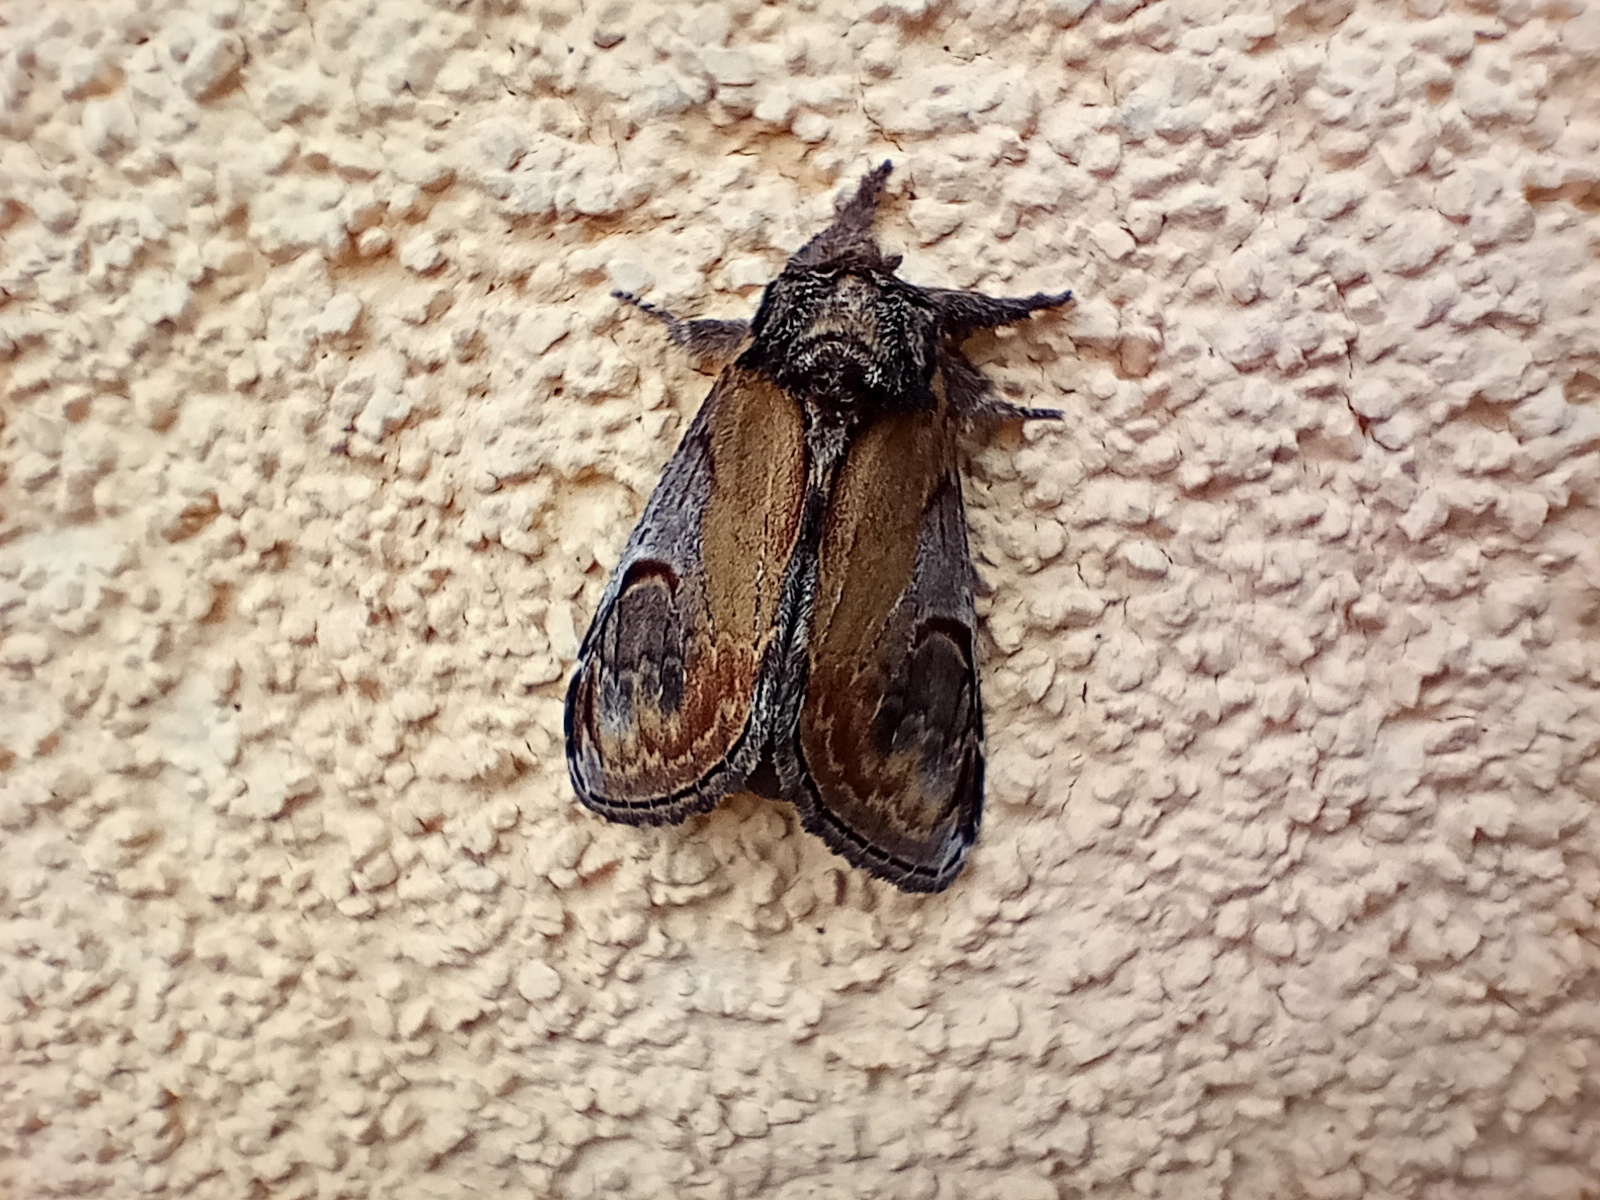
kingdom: Animalia
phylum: Arthropoda
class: Insecta
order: Lepidoptera
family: Notodontidae
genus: Notodonta
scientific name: Notodonta ziczac
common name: Pebble prominent
